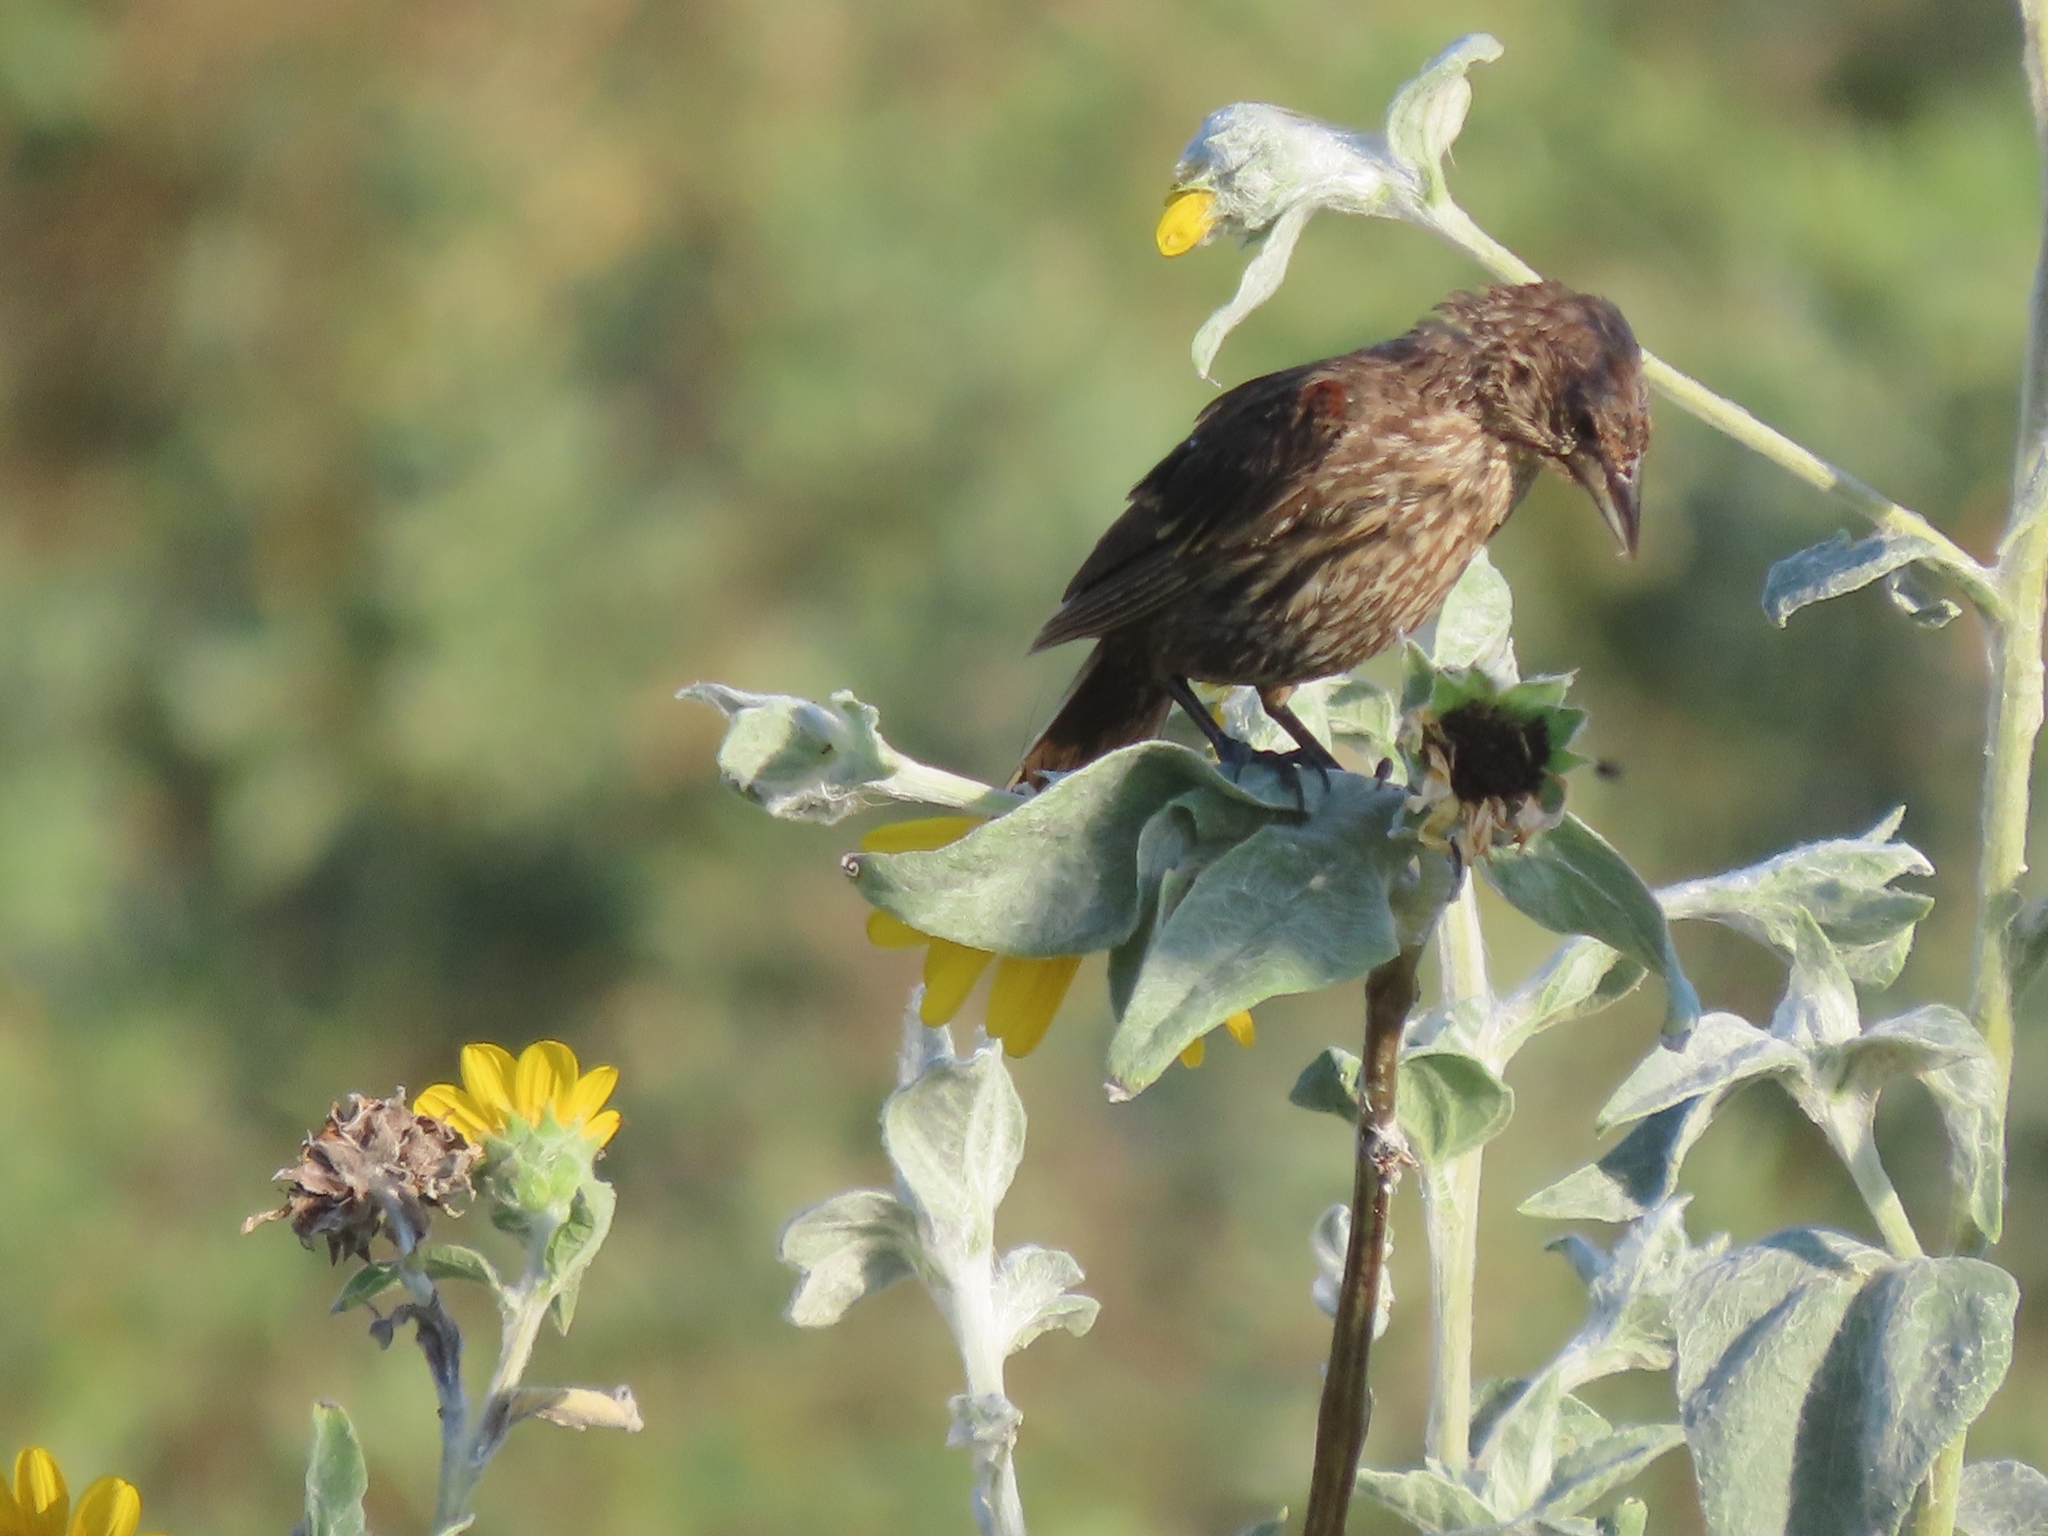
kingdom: Animalia
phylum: Chordata
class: Aves
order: Passeriformes
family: Icteridae
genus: Agelaius
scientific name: Agelaius phoeniceus
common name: Red-winged blackbird
